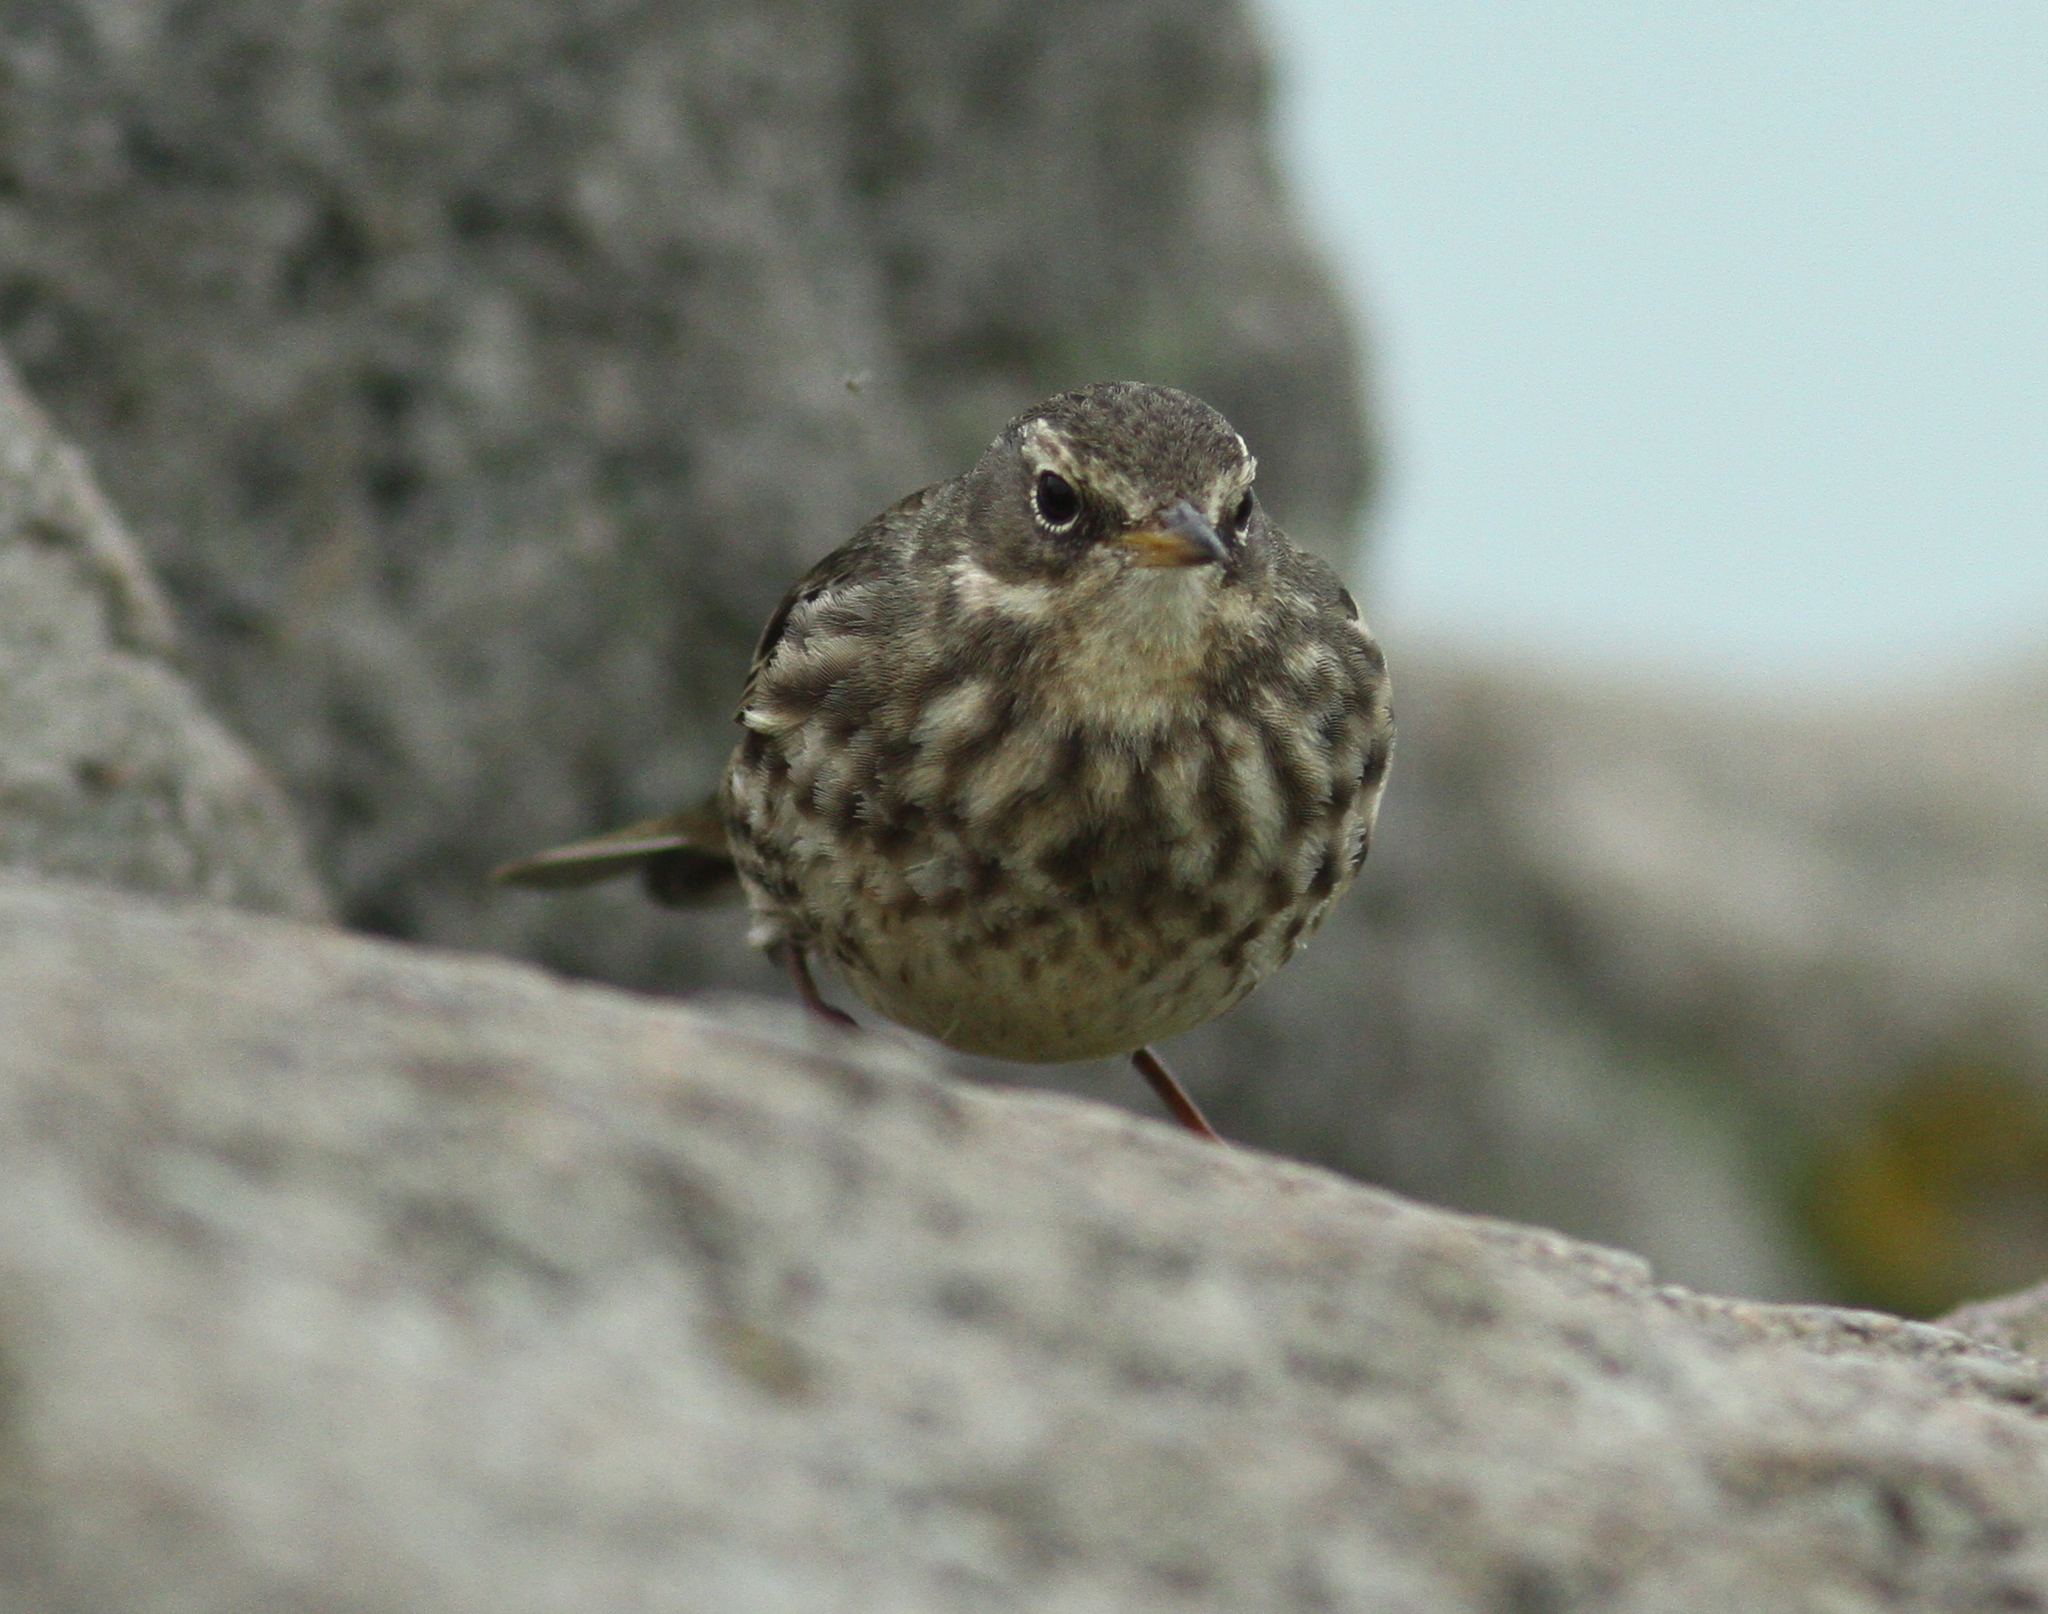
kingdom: Animalia
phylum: Chordata
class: Aves
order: Passeriformes
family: Motacillidae
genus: Anthus
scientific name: Anthus petrosus
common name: Eurasian rock pipit
